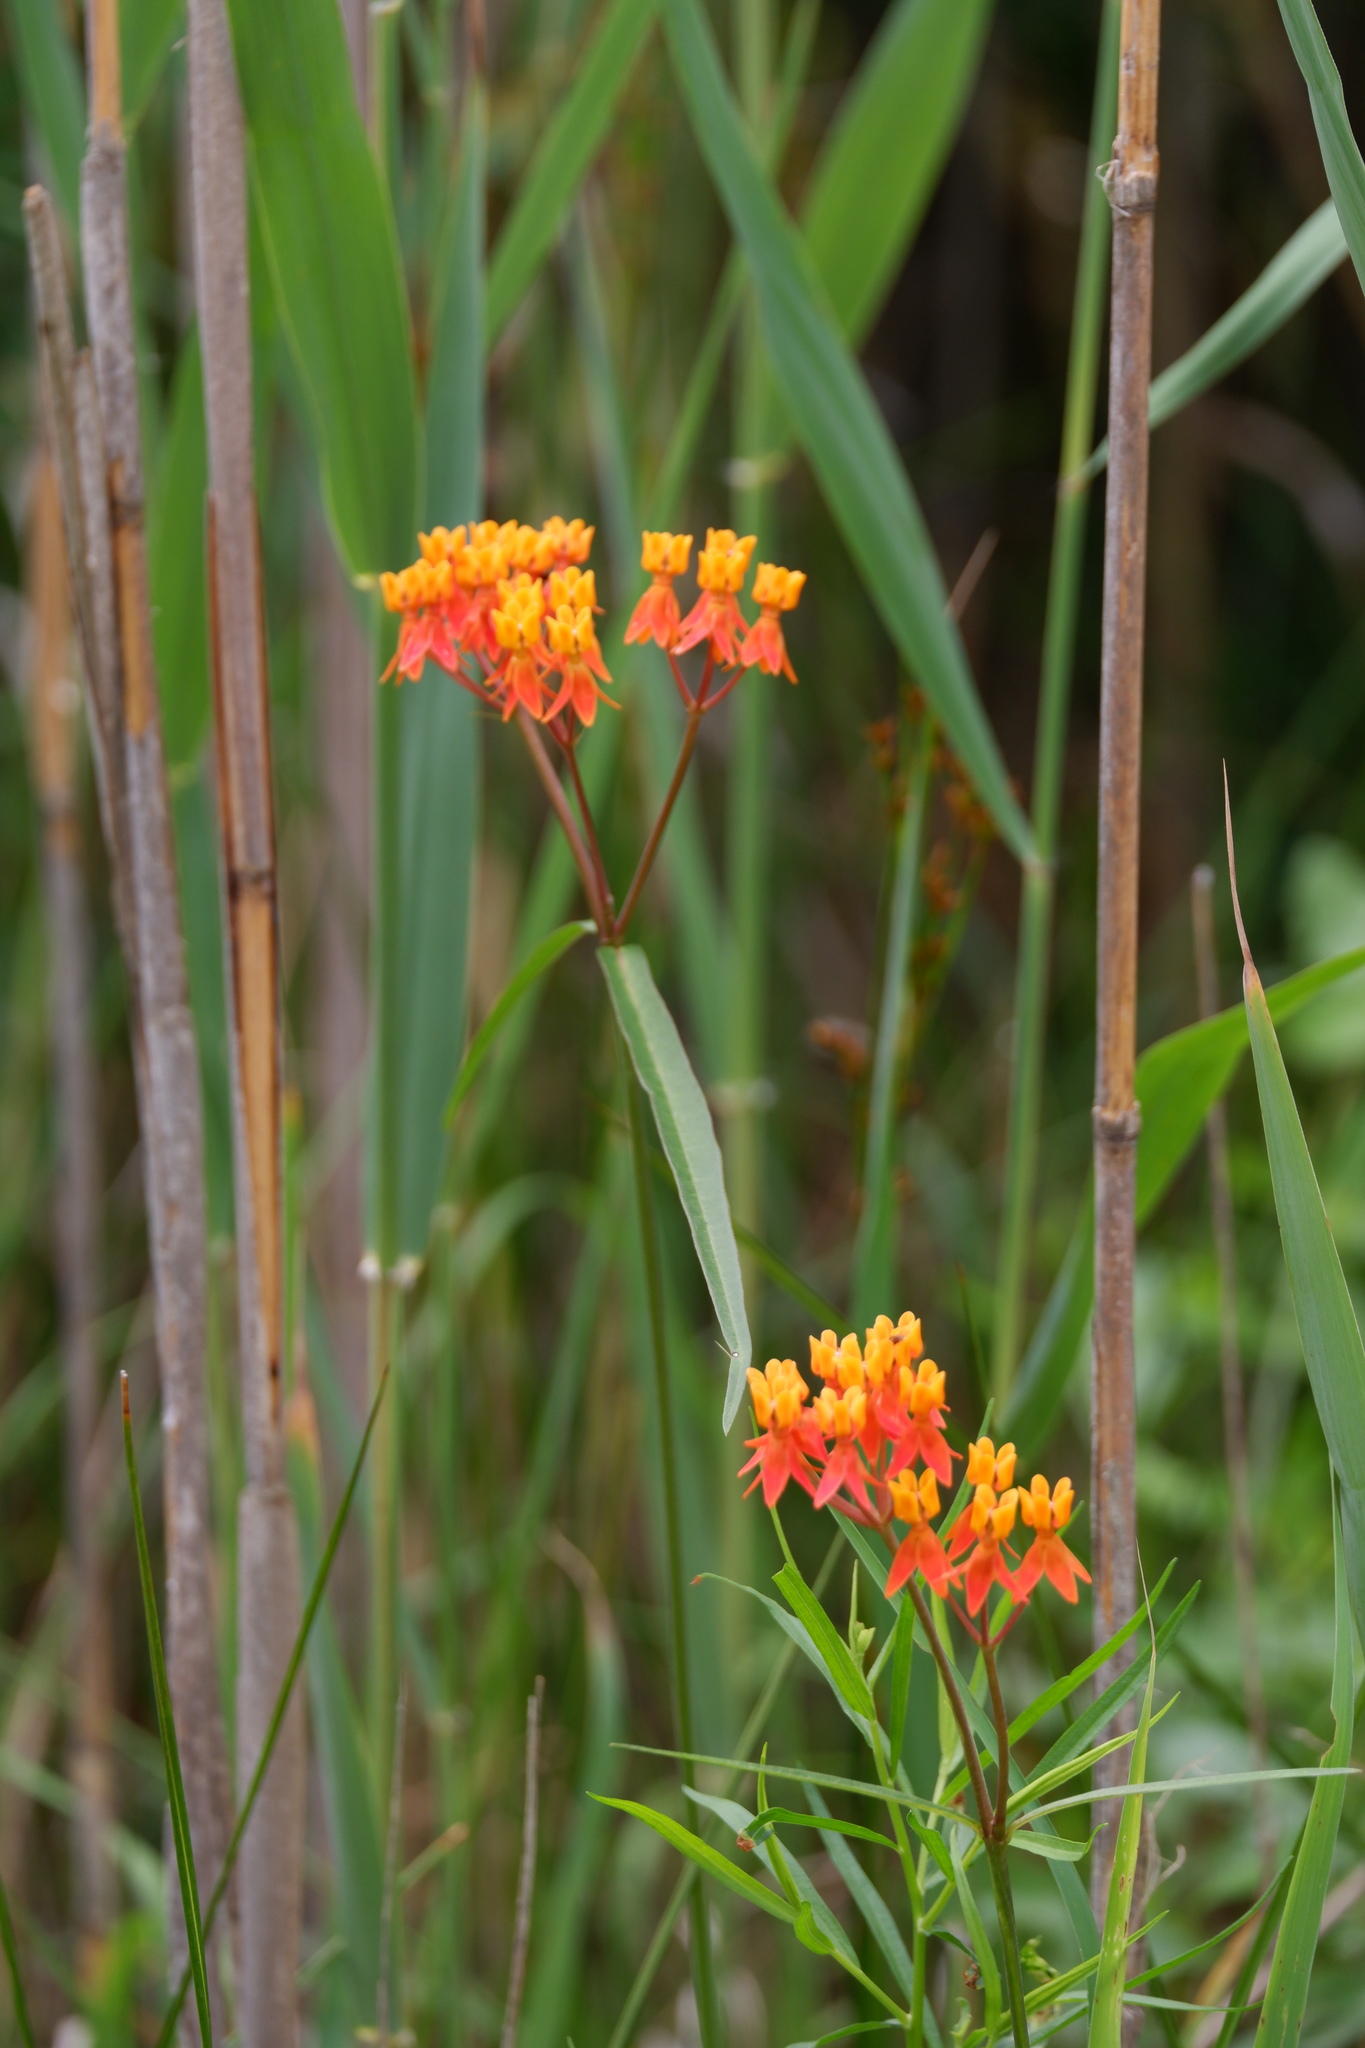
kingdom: Plantae
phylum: Tracheophyta
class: Magnoliopsida
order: Gentianales
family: Apocynaceae
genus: Asclepias
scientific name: Asclepias lanceolata
